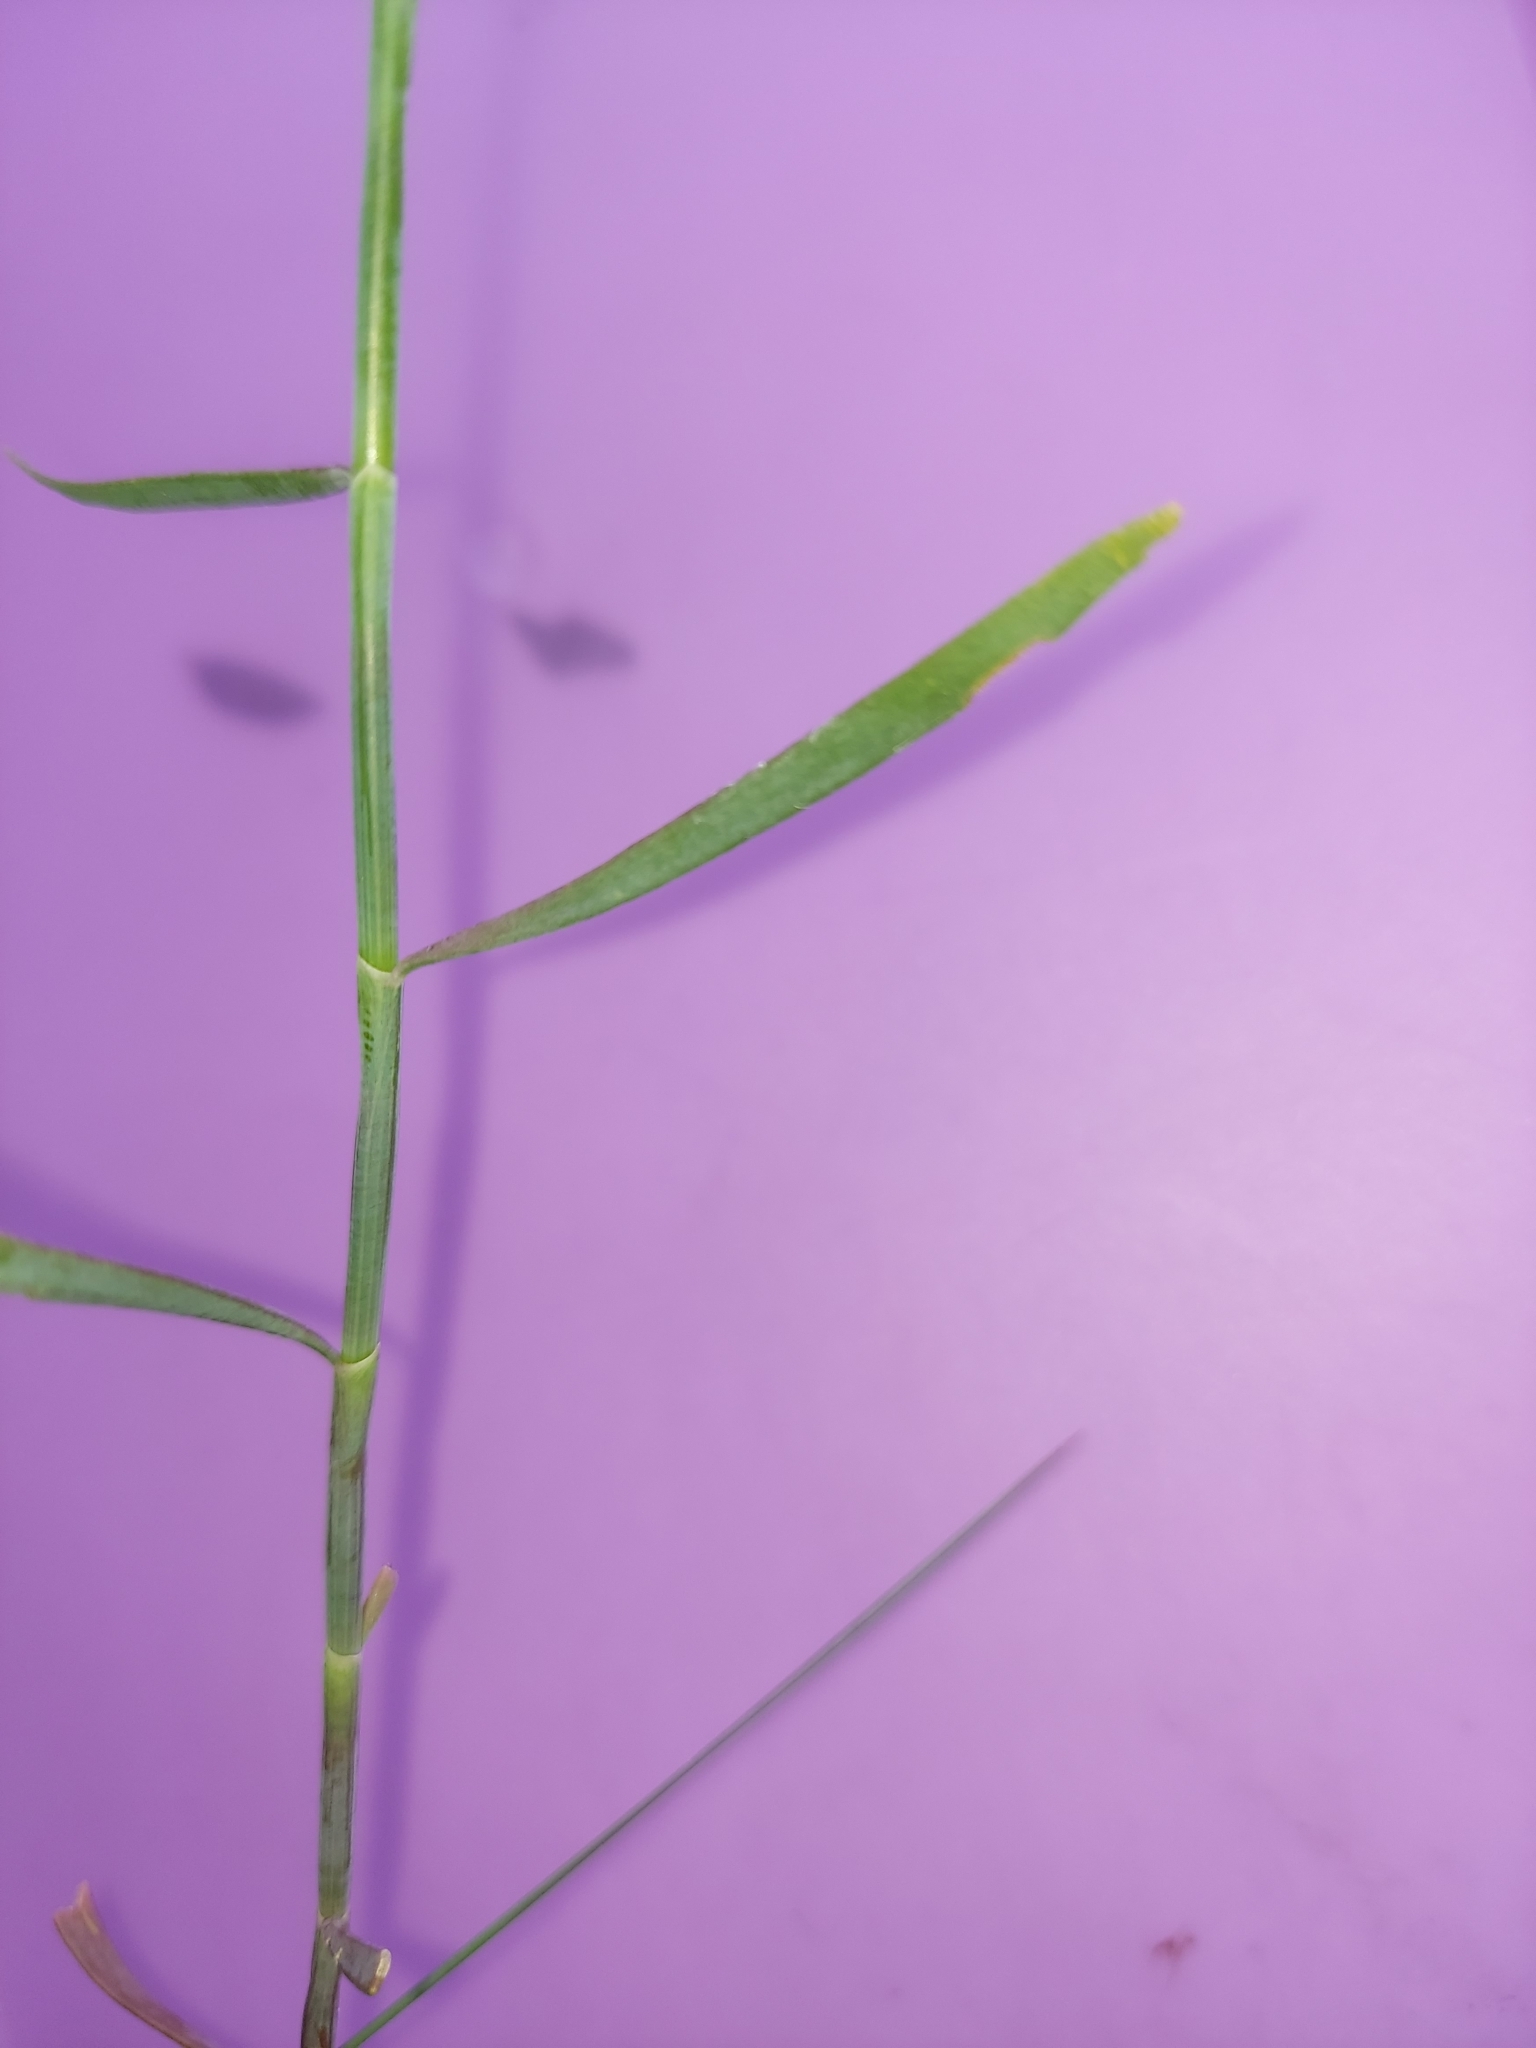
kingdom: Plantae
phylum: Tracheophyta
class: Magnoliopsida
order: Caryophyllales
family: Polygonaceae
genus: Polygonella
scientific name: Polygonella gracilis
